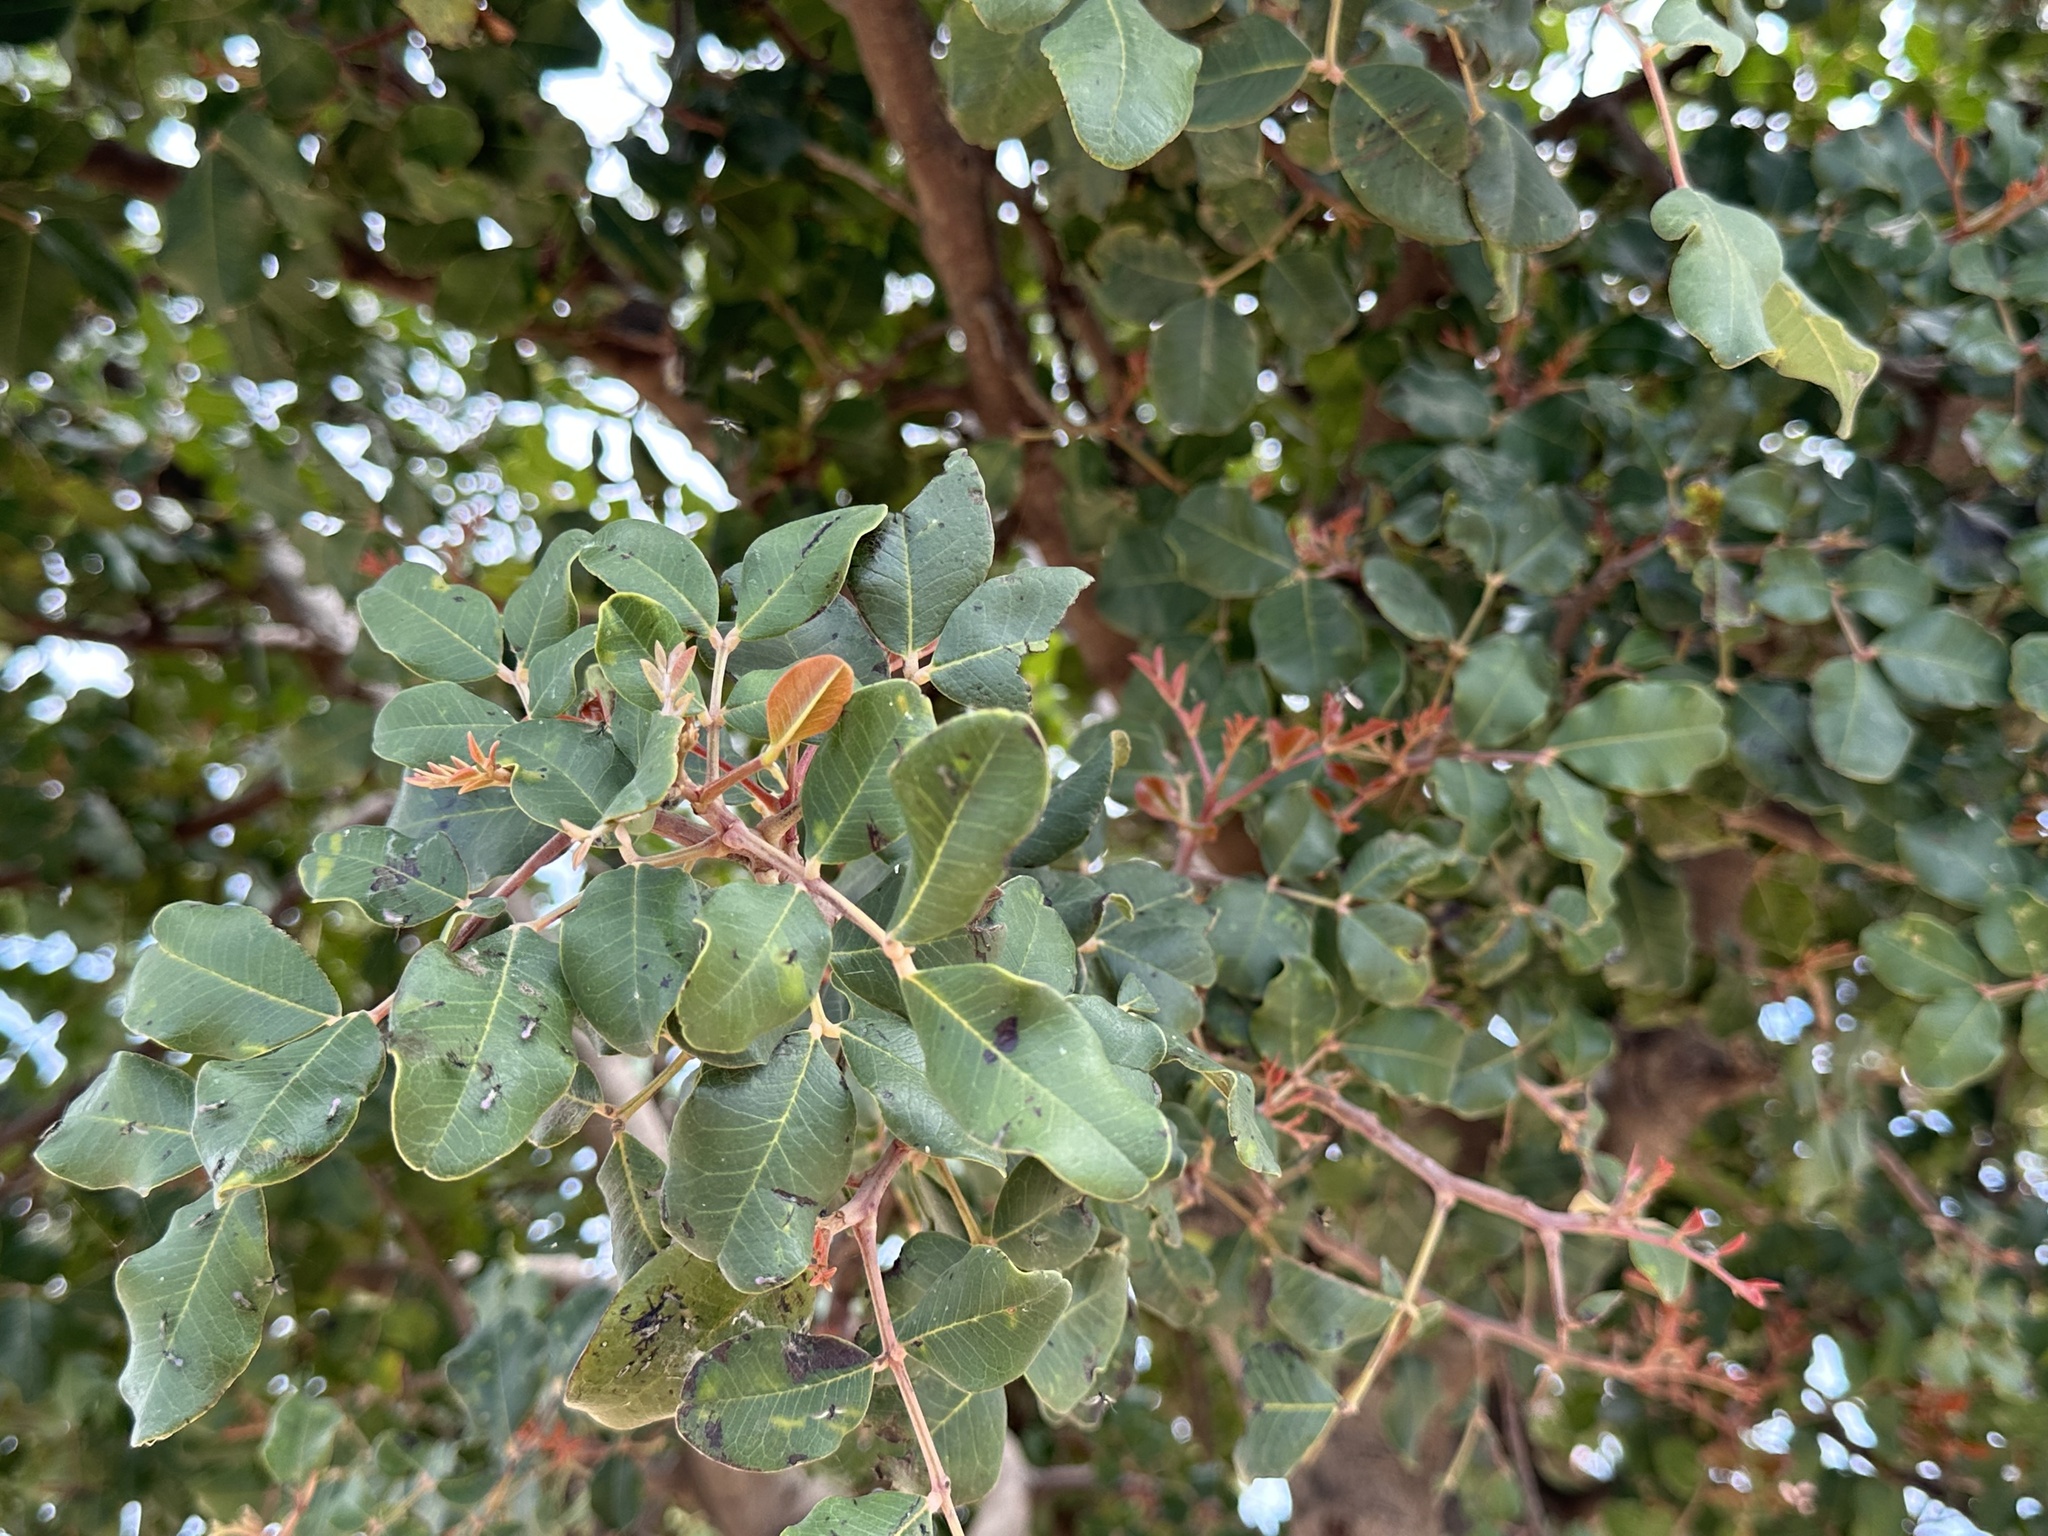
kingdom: Plantae
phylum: Tracheophyta
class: Magnoliopsida
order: Fabales
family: Fabaceae
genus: Ceratonia
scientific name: Ceratonia siliqua
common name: Carob
